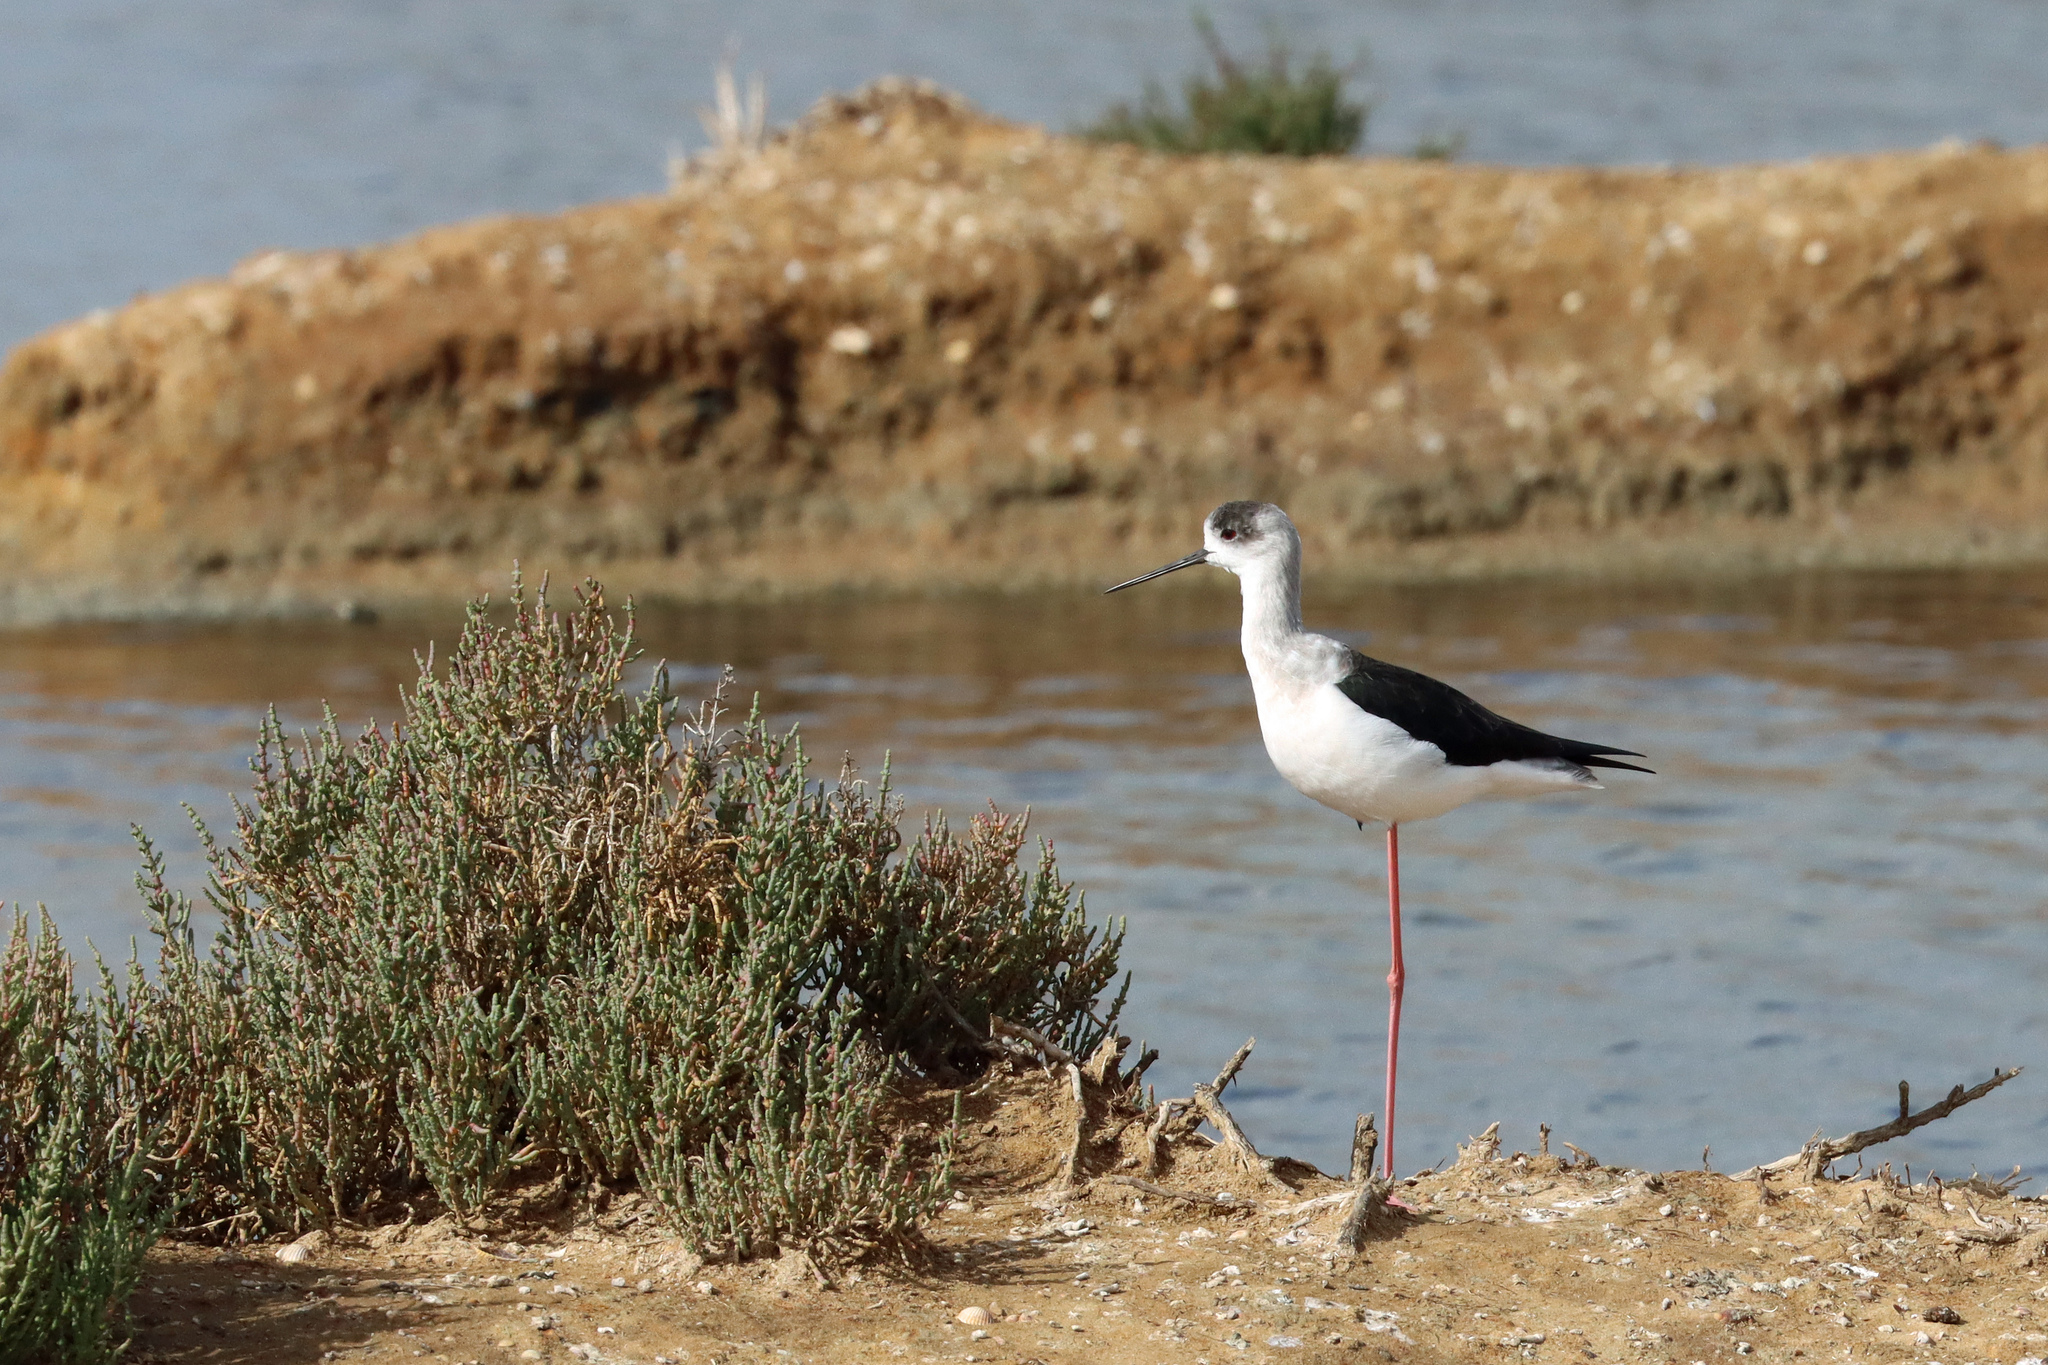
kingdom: Animalia
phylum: Chordata
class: Aves
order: Charadriiformes
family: Recurvirostridae
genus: Himantopus
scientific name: Himantopus himantopus
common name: Black-winged stilt
